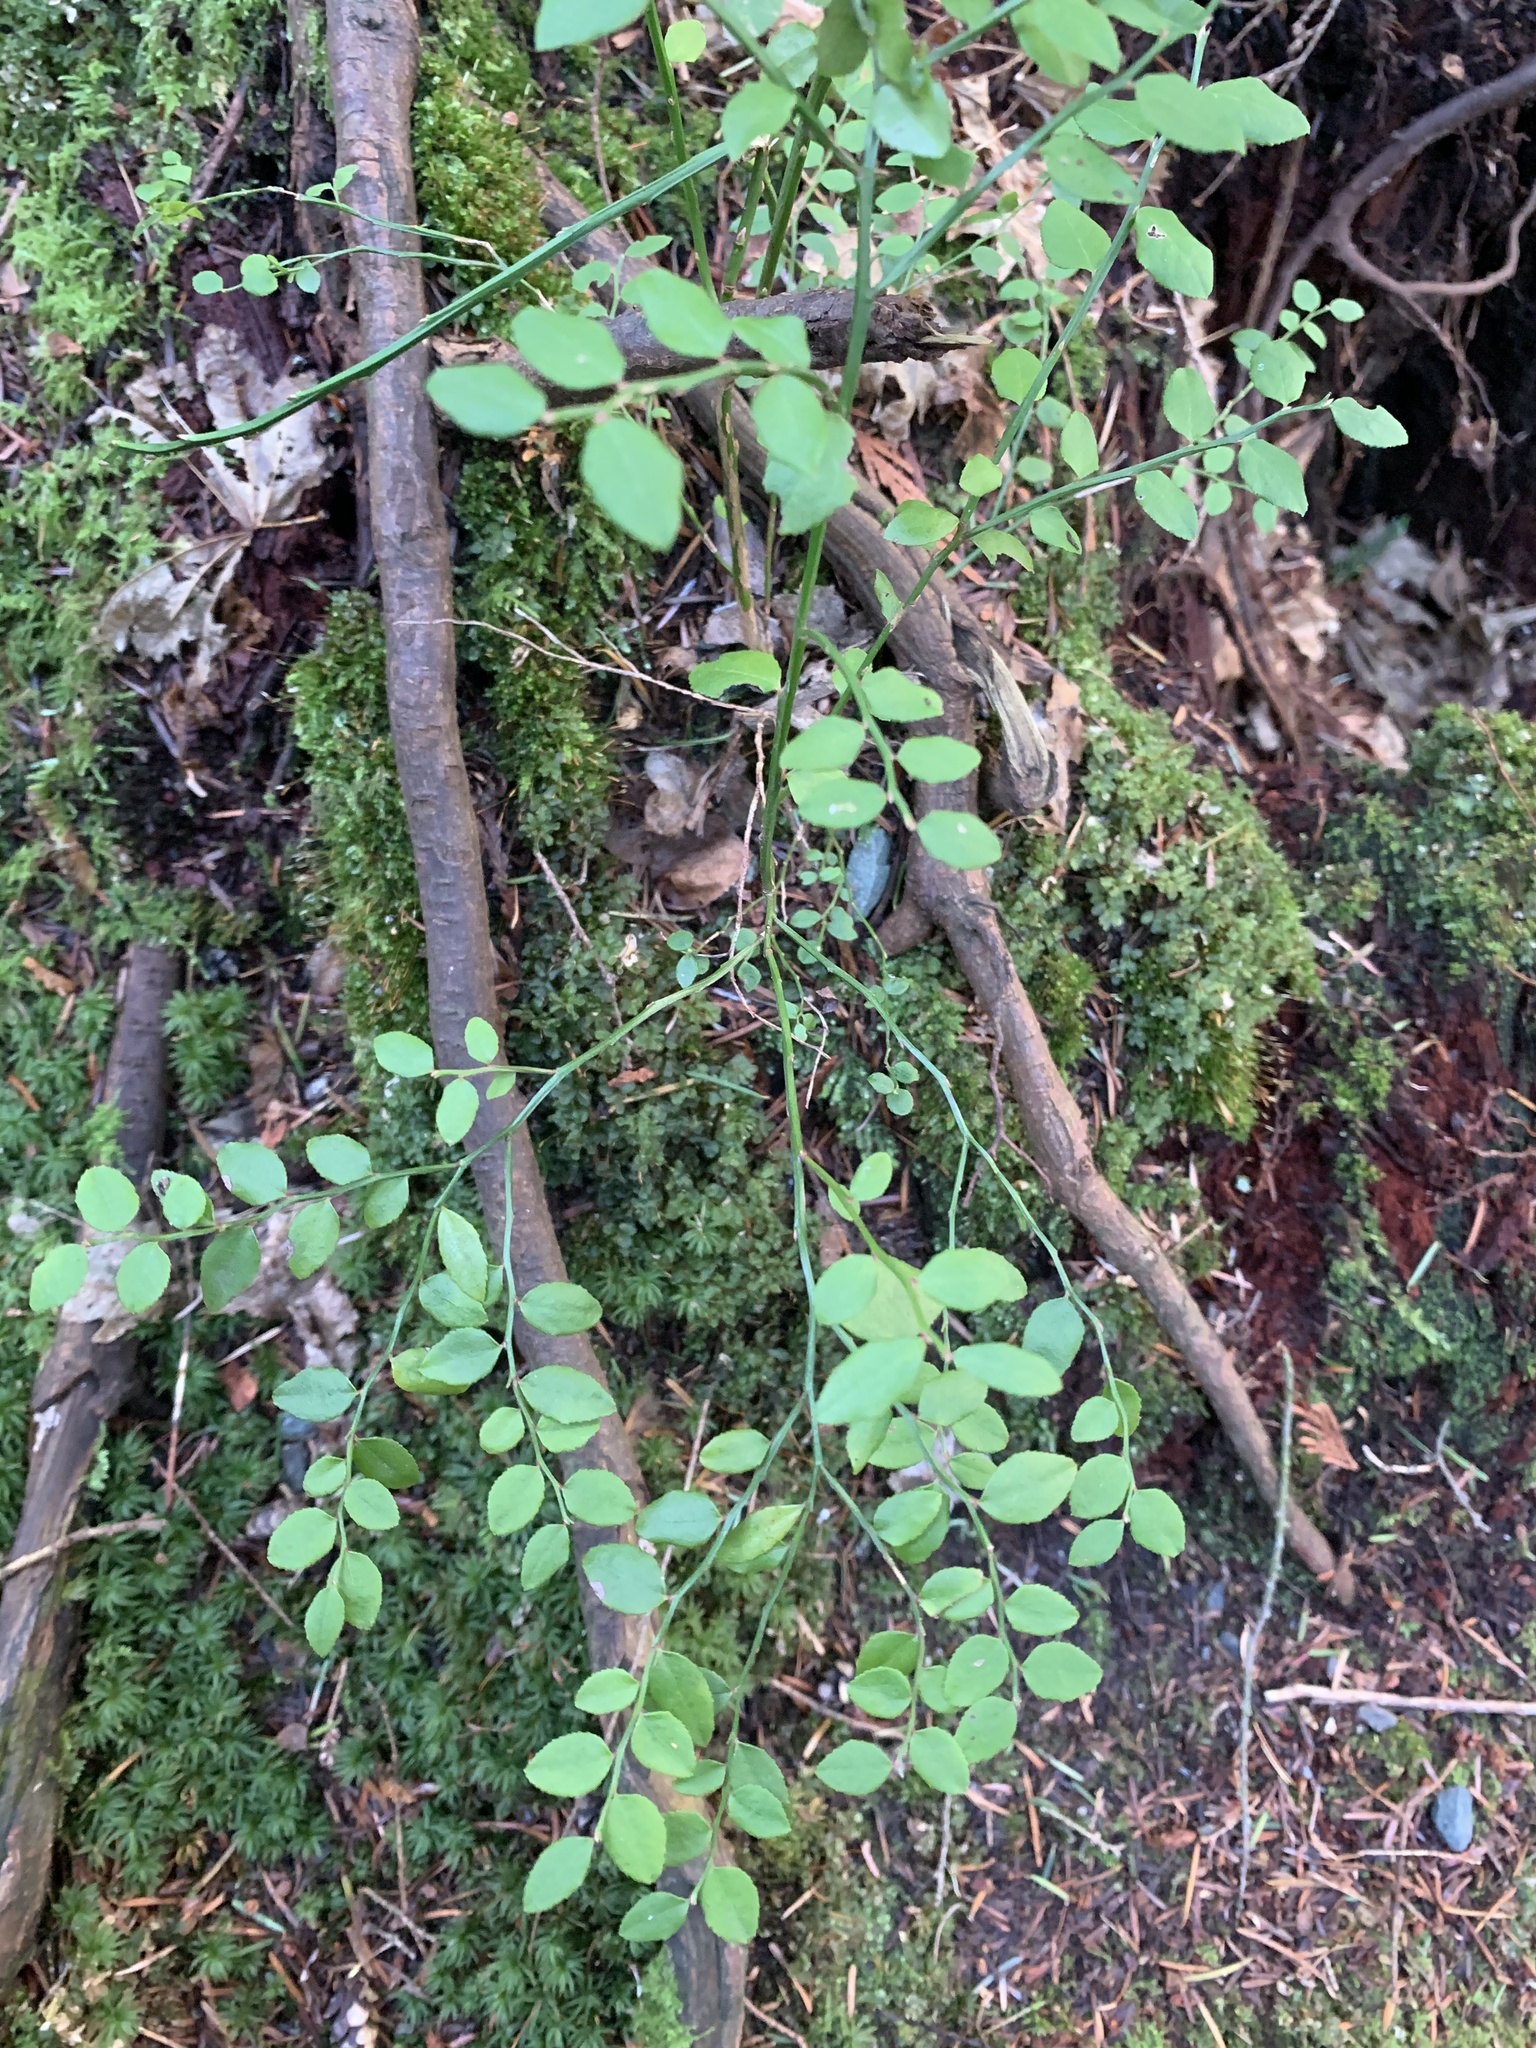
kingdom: Plantae
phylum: Tracheophyta
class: Magnoliopsida
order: Ericales
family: Ericaceae
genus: Vaccinium
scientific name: Vaccinium parvifolium
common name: Red-huckleberry
